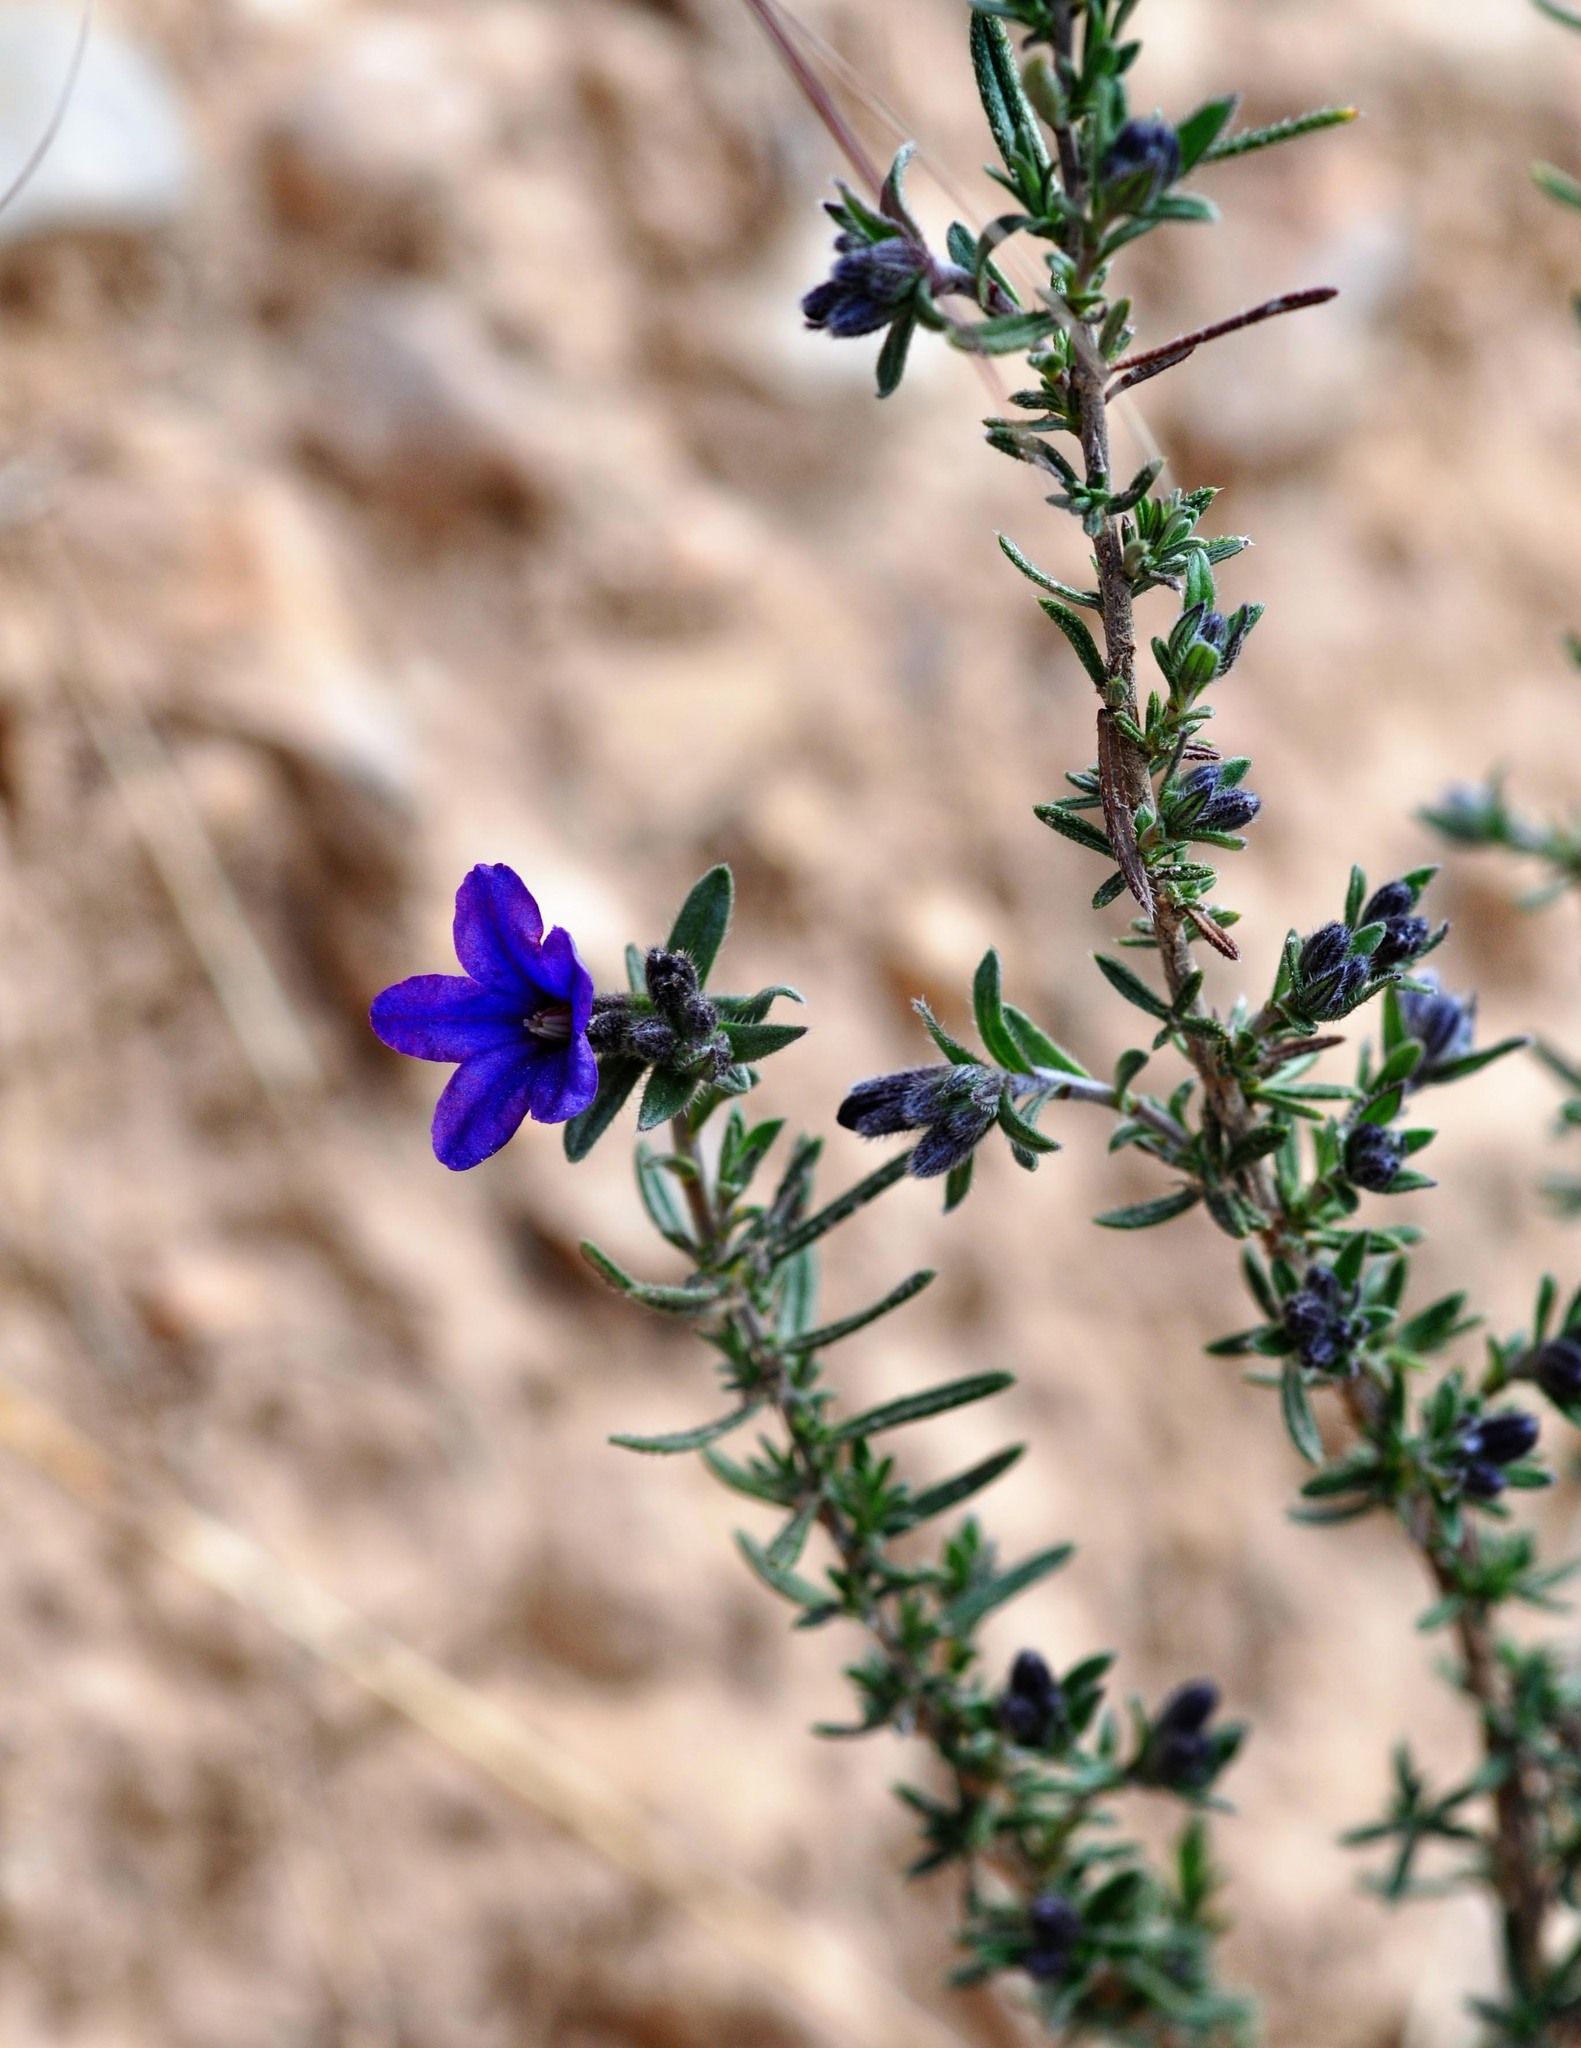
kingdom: Plantae
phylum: Tracheophyta
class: Magnoliopsida
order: Boraginales
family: Boraginaceae
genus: Lithodora
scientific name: Lithodora fruticosa
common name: Shrubby gromwell
